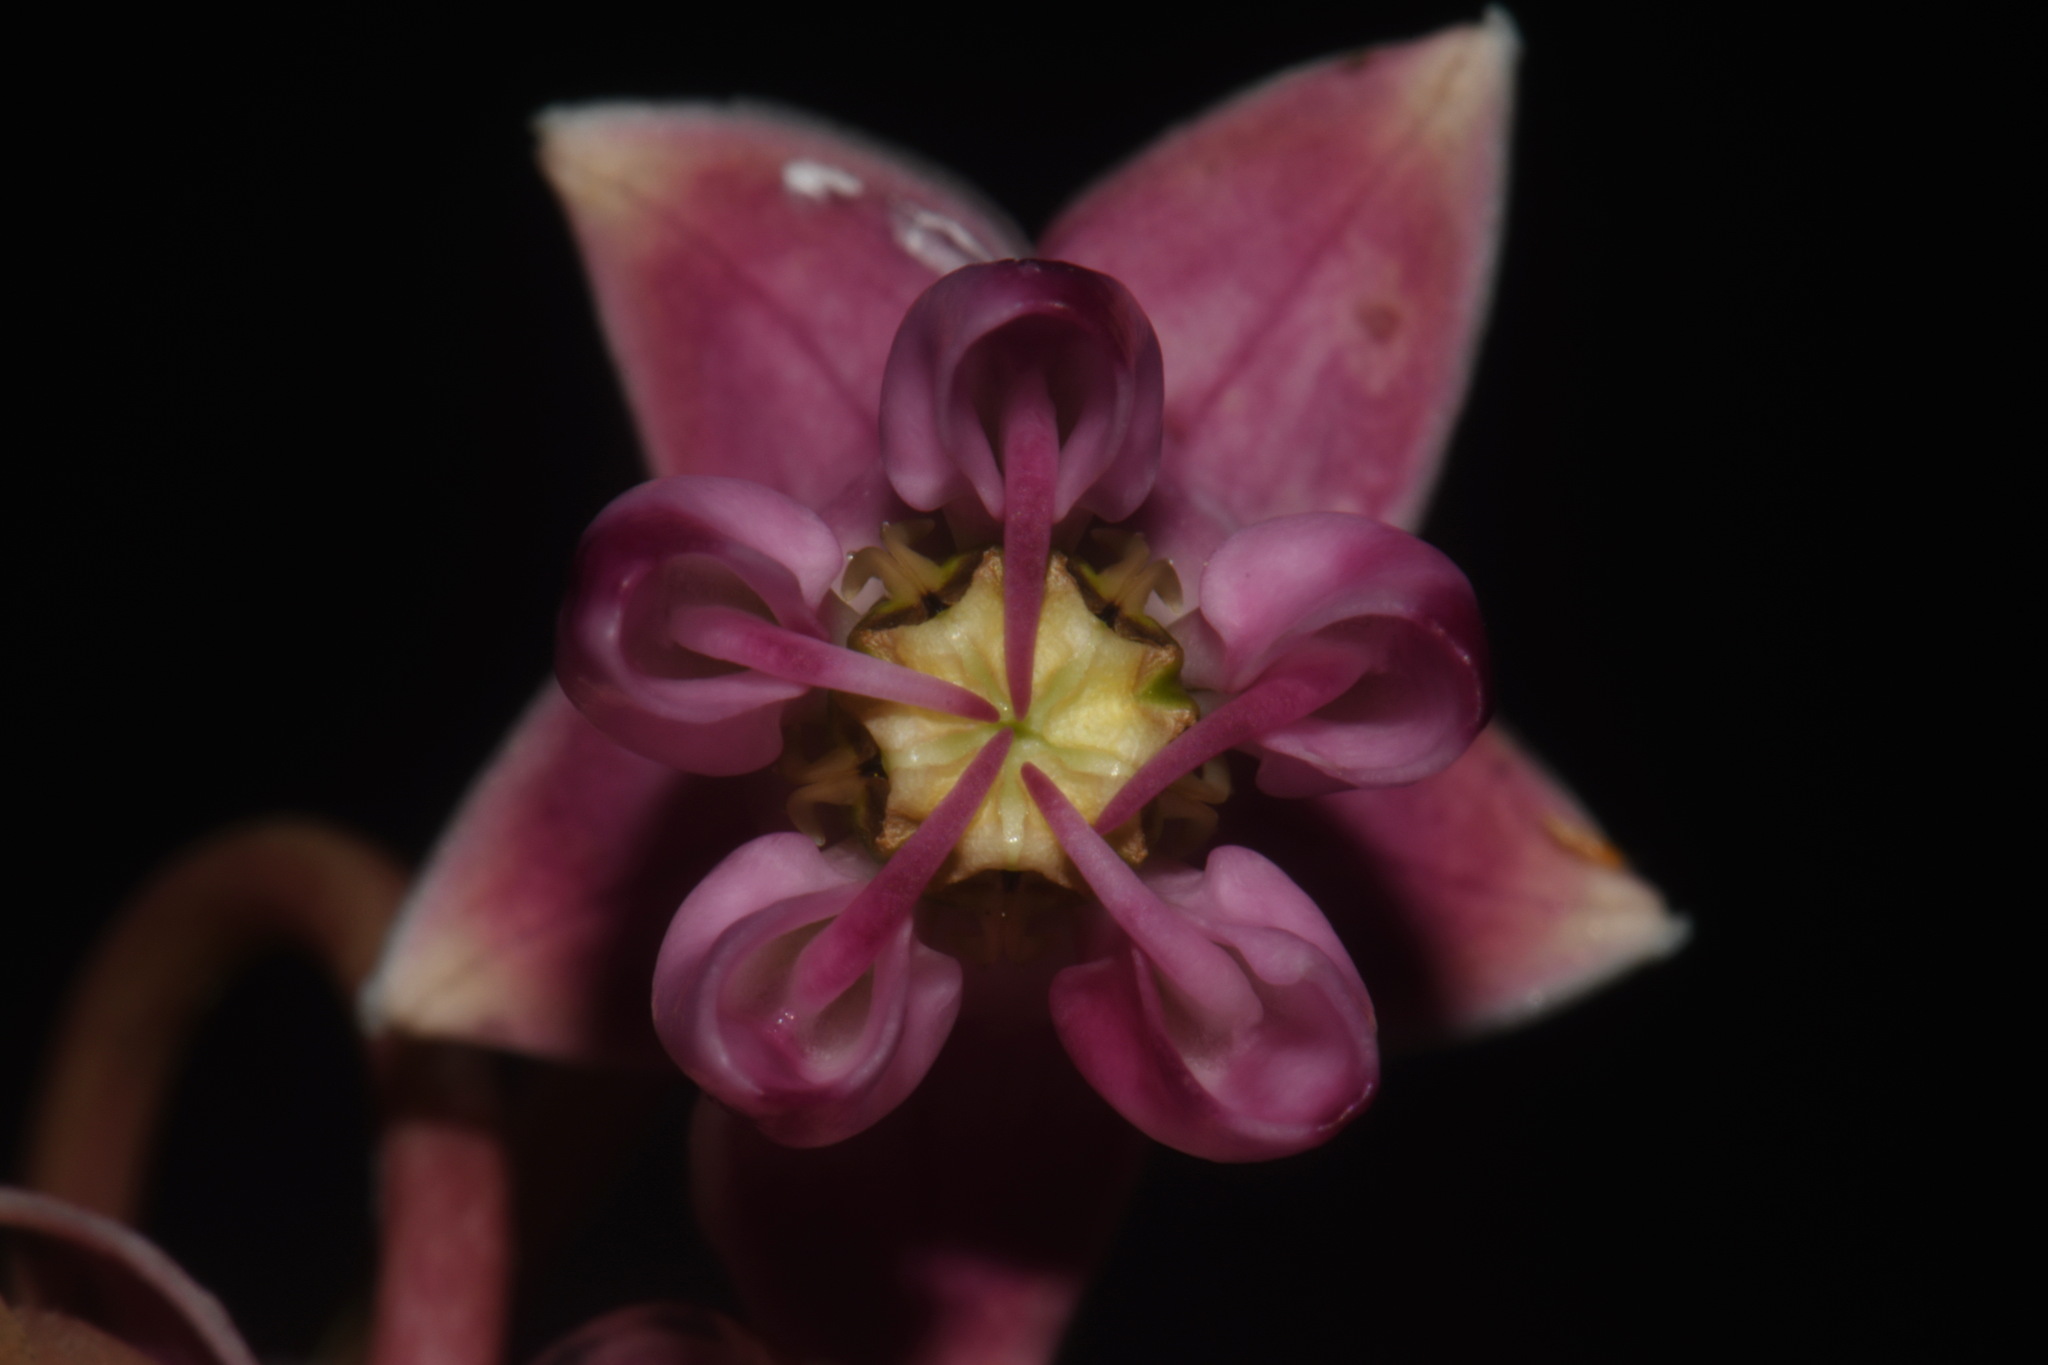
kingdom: Plantae
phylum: Tracheophyta
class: Magnoliopsida
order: Gentianales
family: Apocynaceae
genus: Asclepias
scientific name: Asclepias sullivantii
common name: Prairie milkweed
